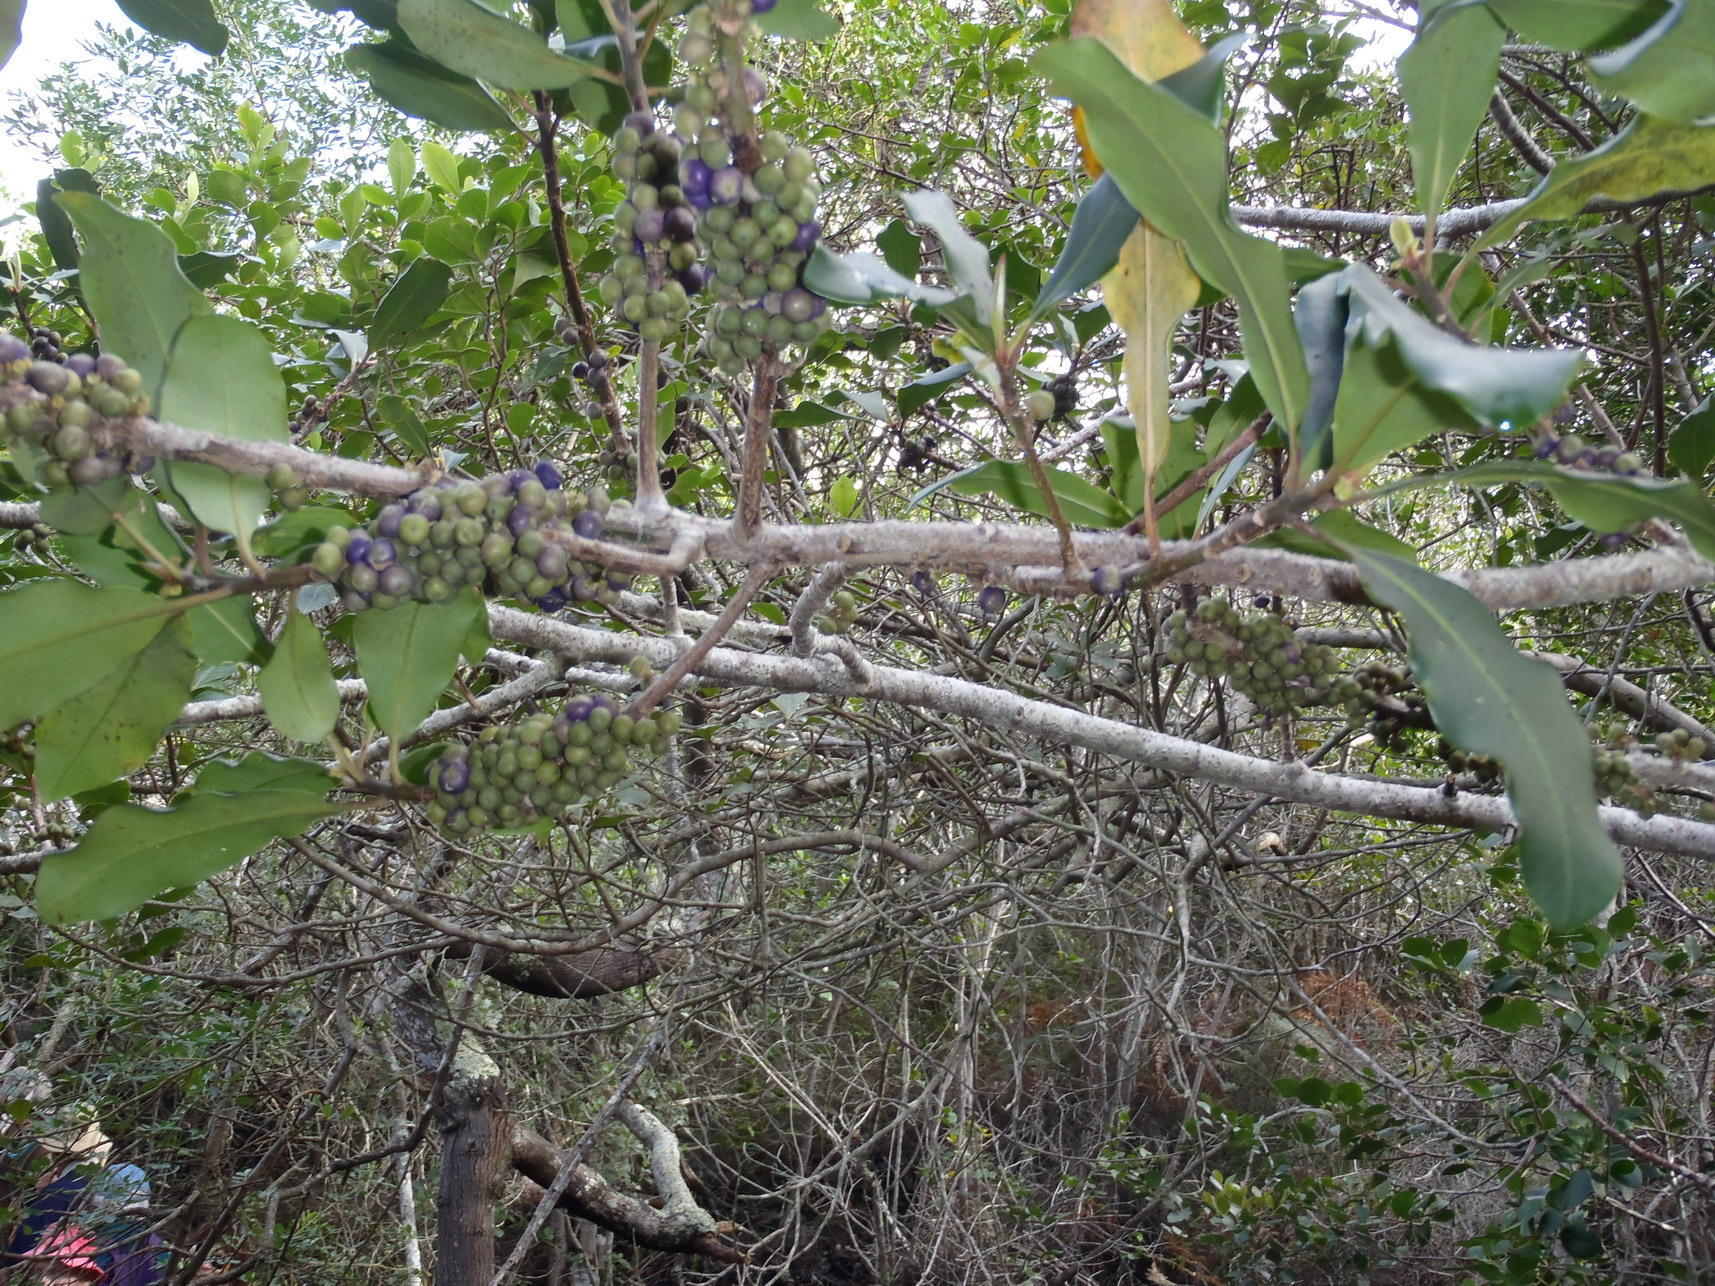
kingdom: Plantae
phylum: Tracheophyta
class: Magnoliopsida
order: Ericales
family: Sapotaceae
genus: Sideroxylon
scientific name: Sideroxylon inerme
